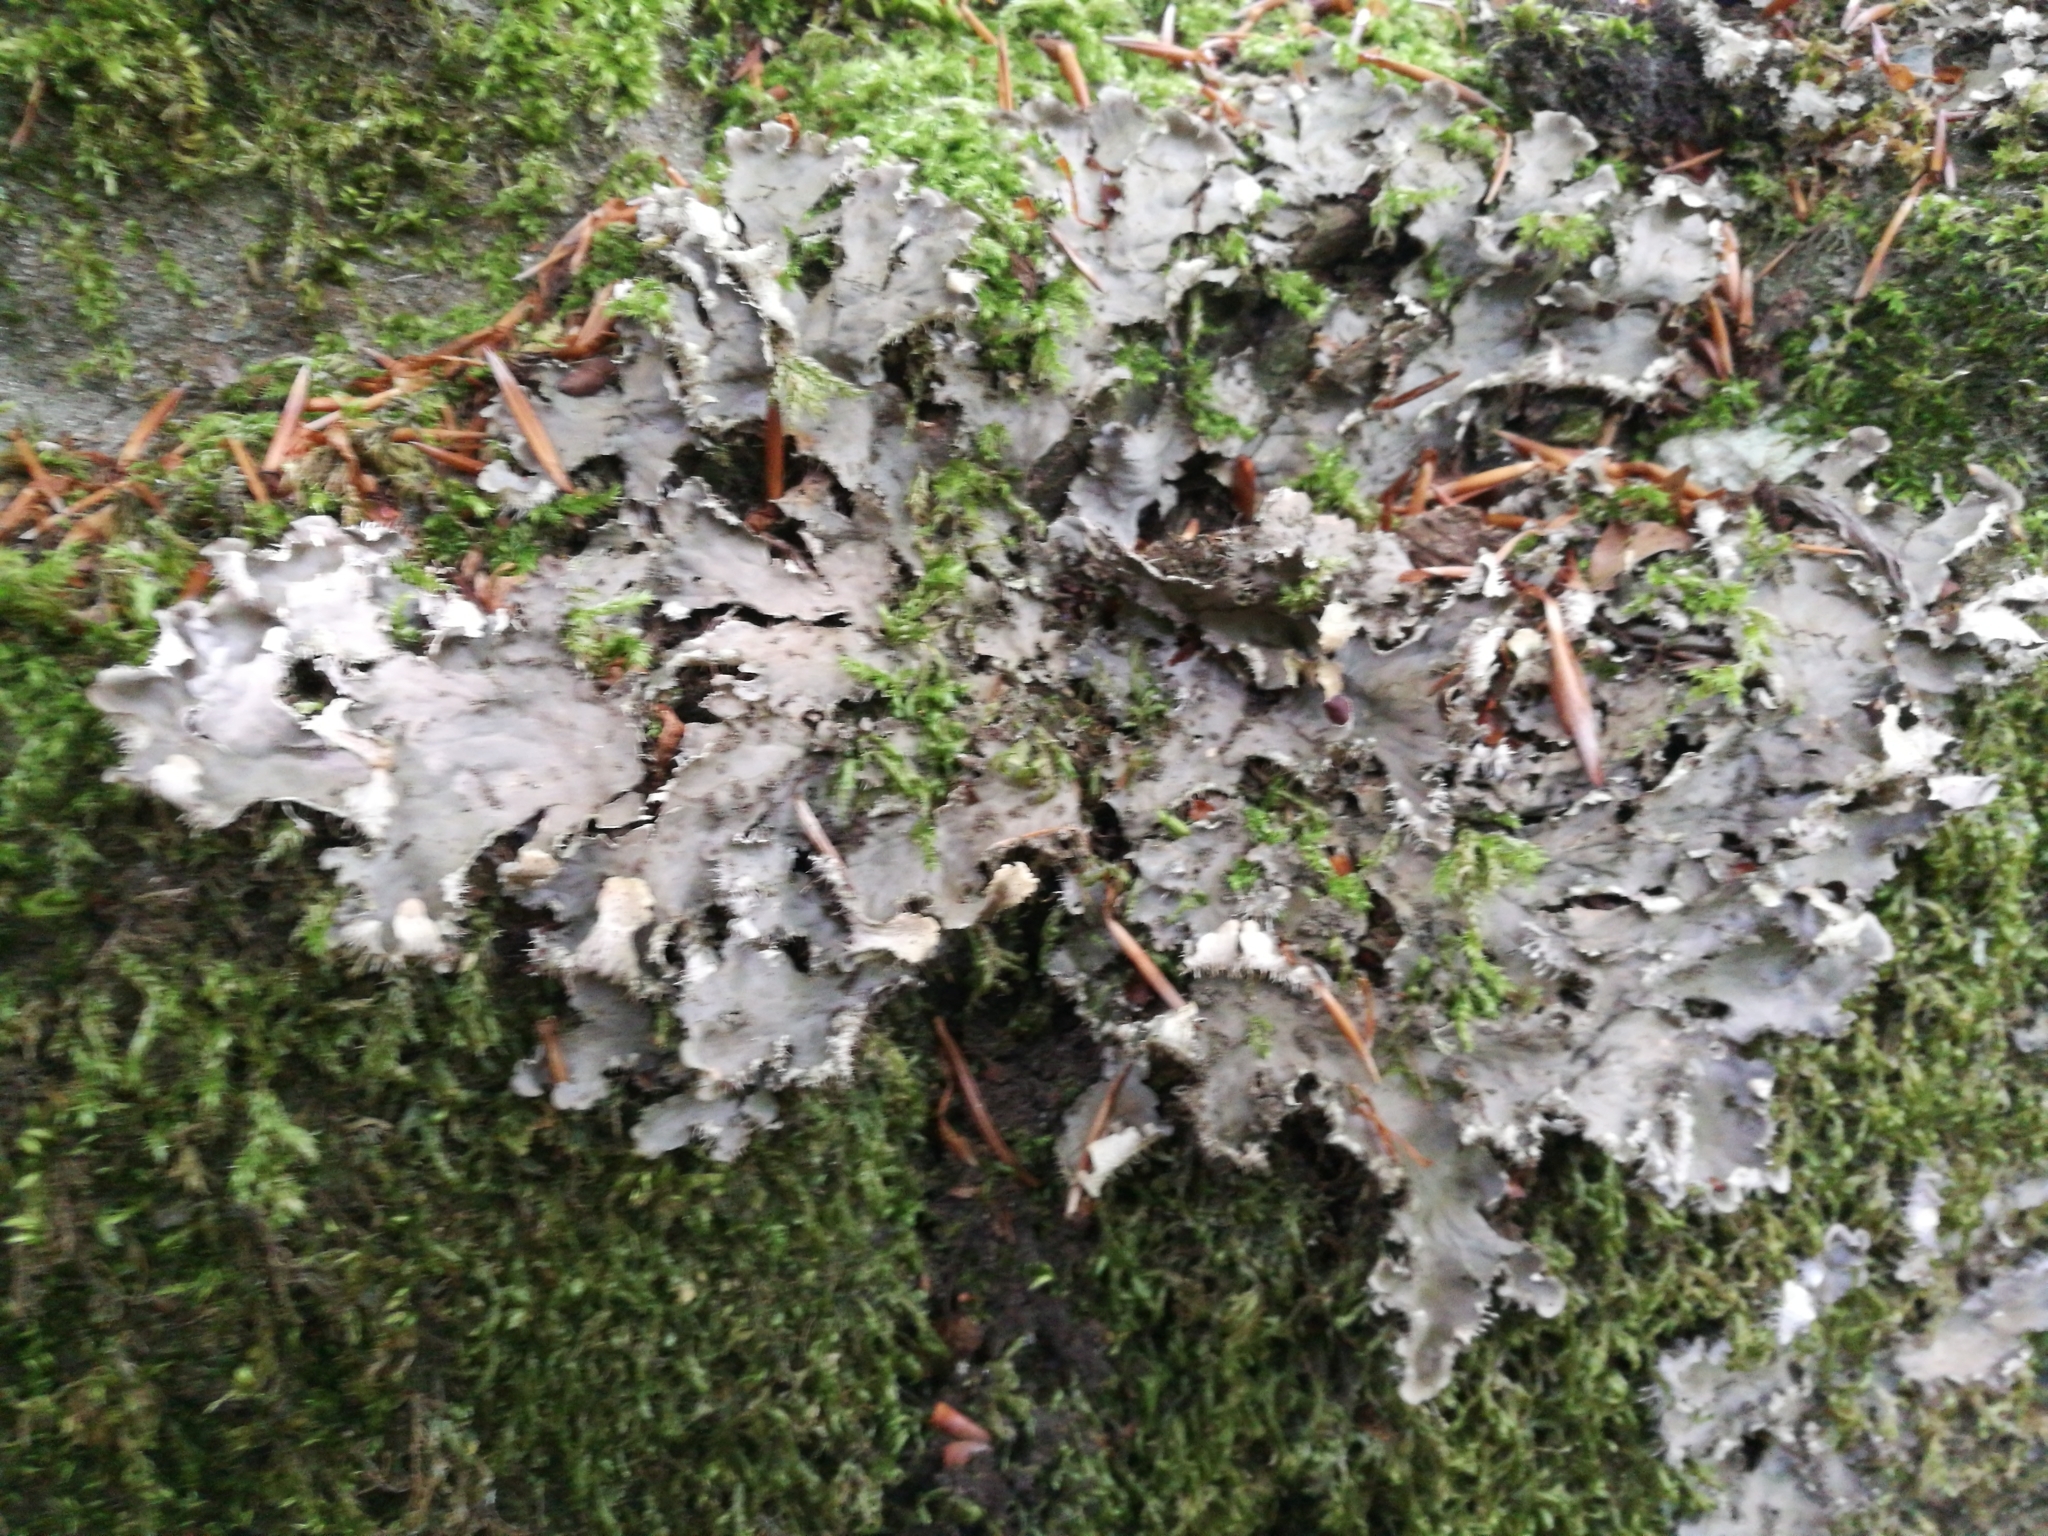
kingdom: Fungi
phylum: Ascomycota
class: Lecanoromycetes
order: Peltigerales
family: Peltigeraceae
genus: Peltigera
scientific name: Peltigera praetextata
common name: Scaly dog-lichen
